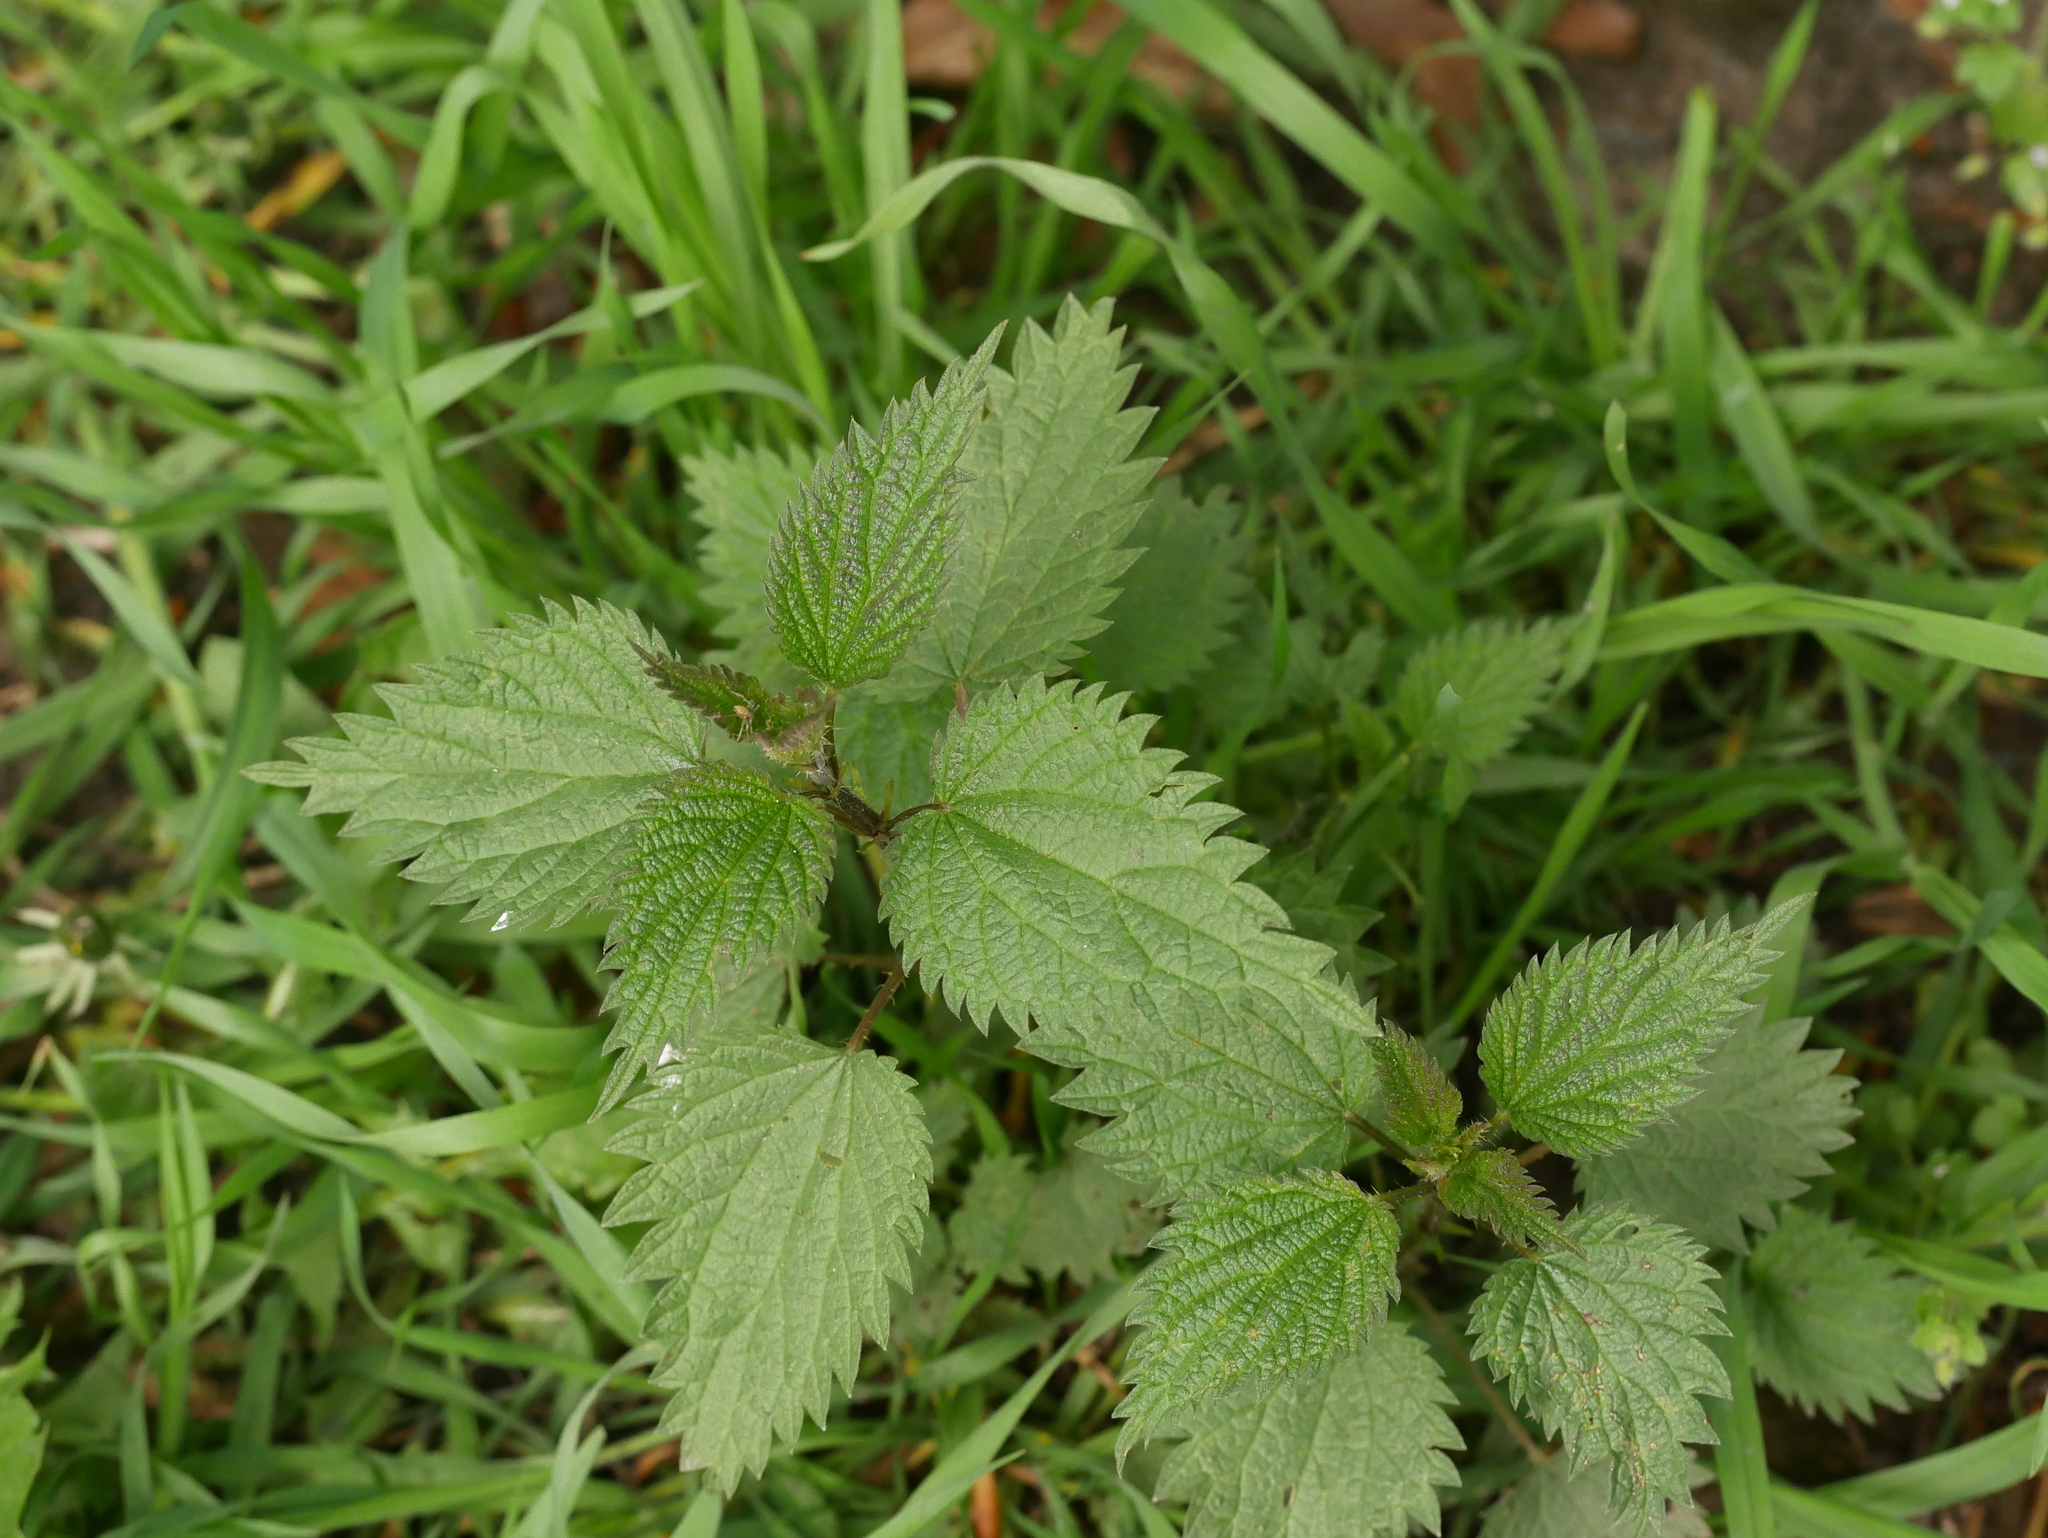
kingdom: Plantae
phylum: Tracheophyta
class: Magnoliopsida
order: Rosales
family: Urticaceae
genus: Urtica
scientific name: Urtica dioica
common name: Common nettle
